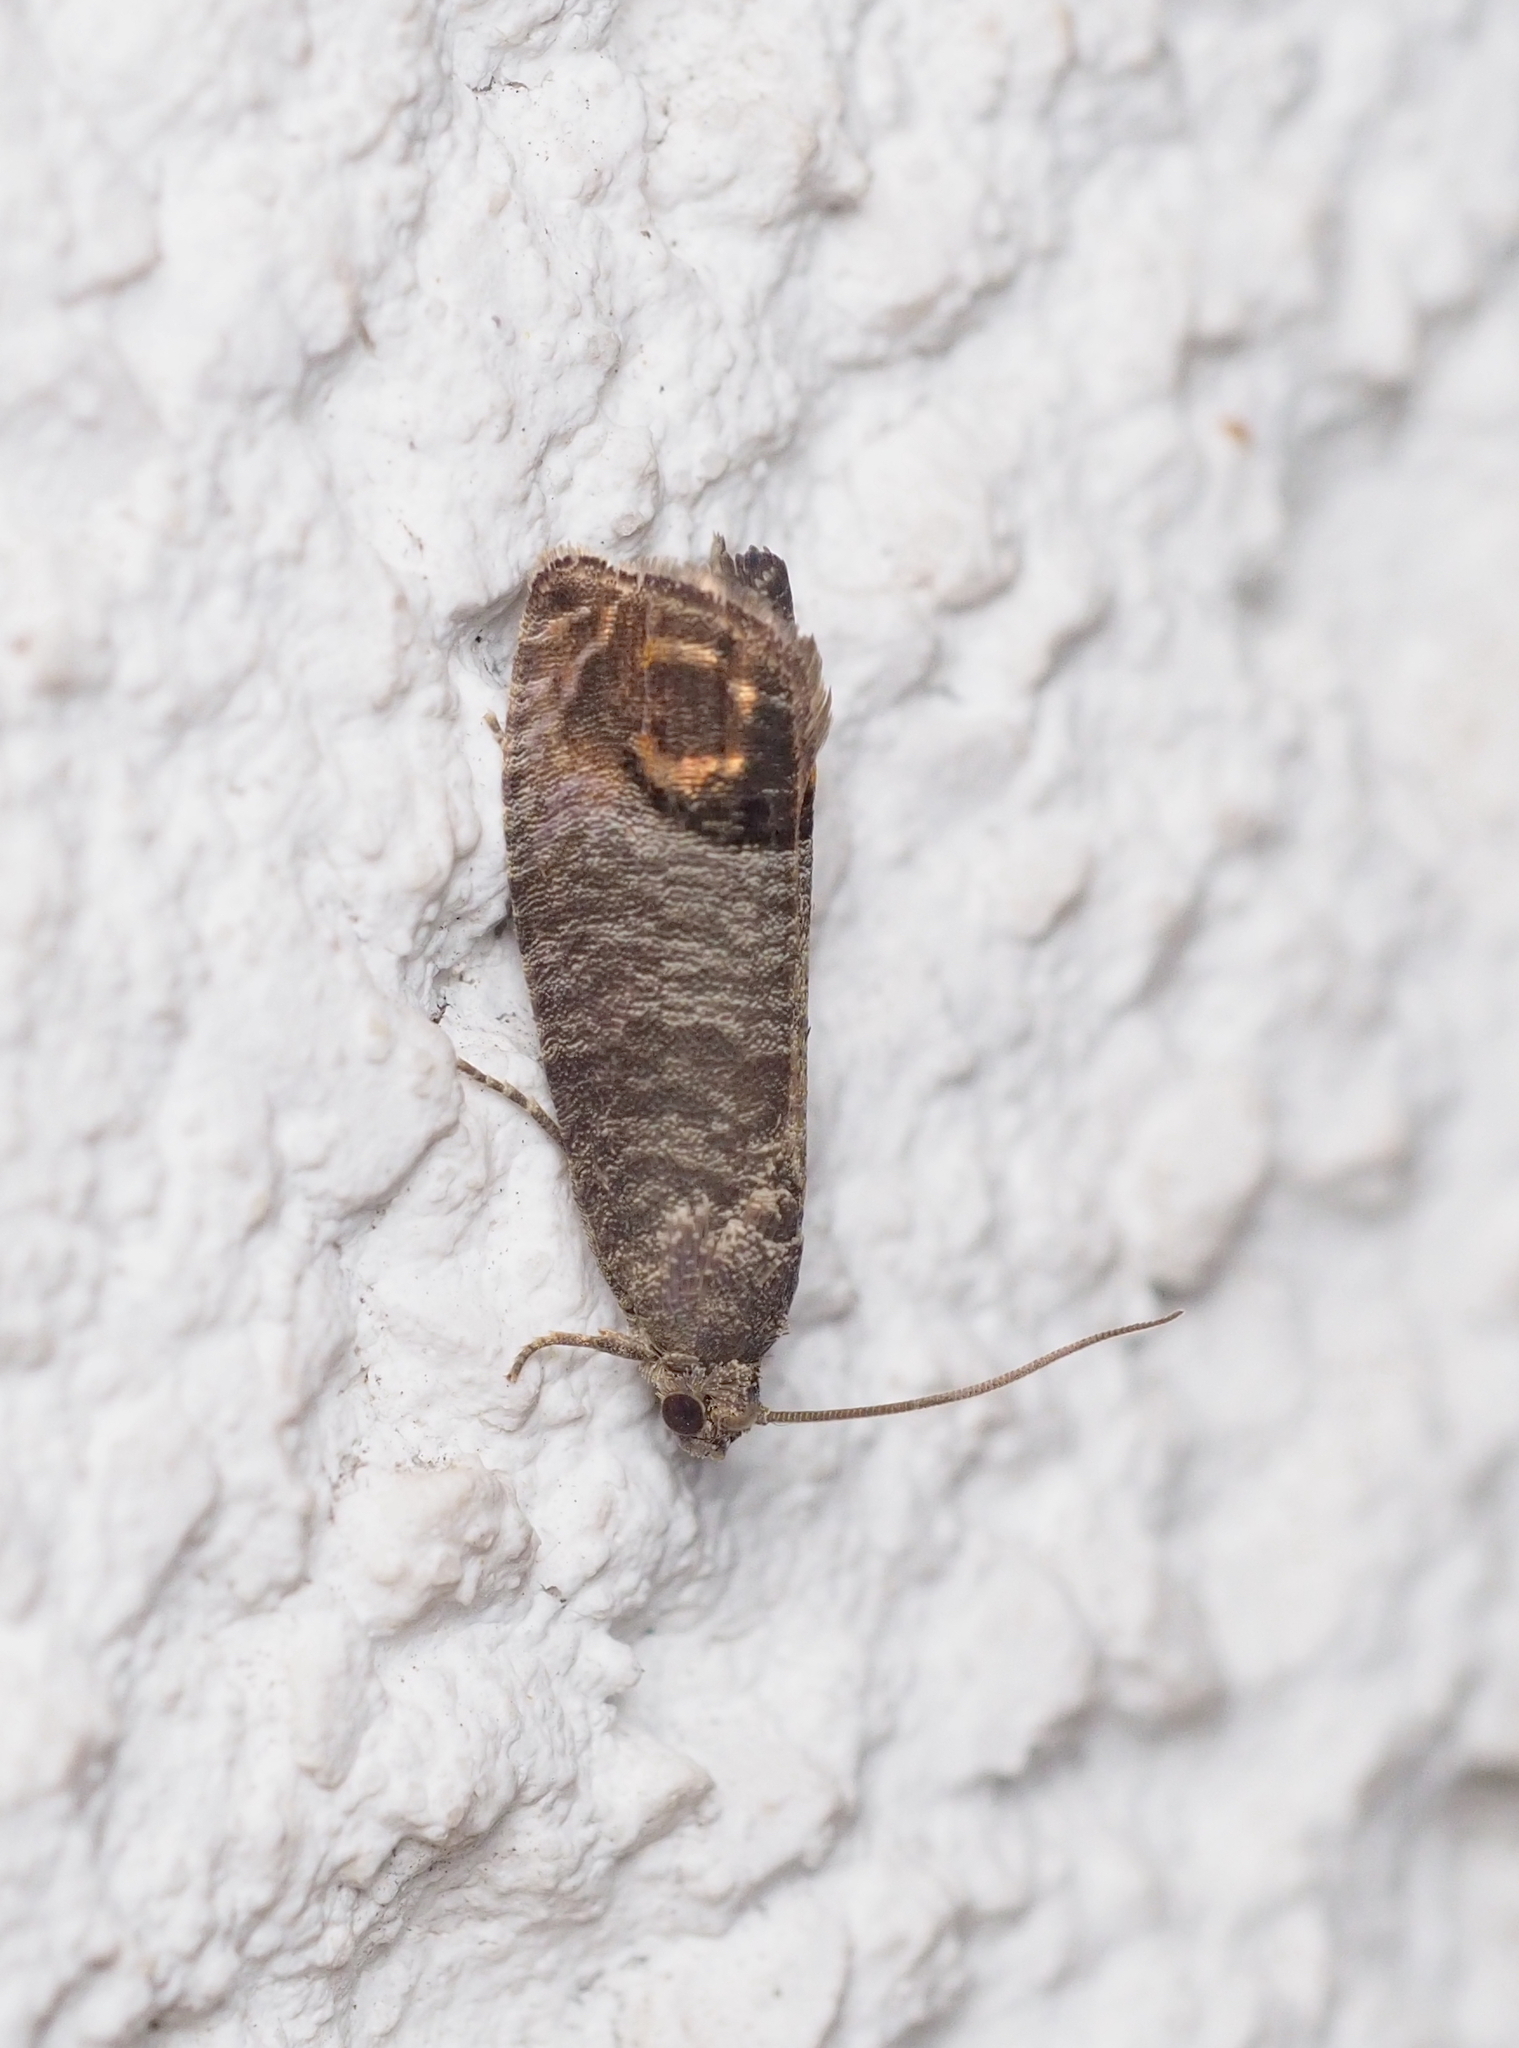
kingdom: Animalia
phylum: Arthropoda
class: Insecta
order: Lepidoptera
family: Tortricidae
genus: Cydia
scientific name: Cydia pomonella
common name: Codling moth
